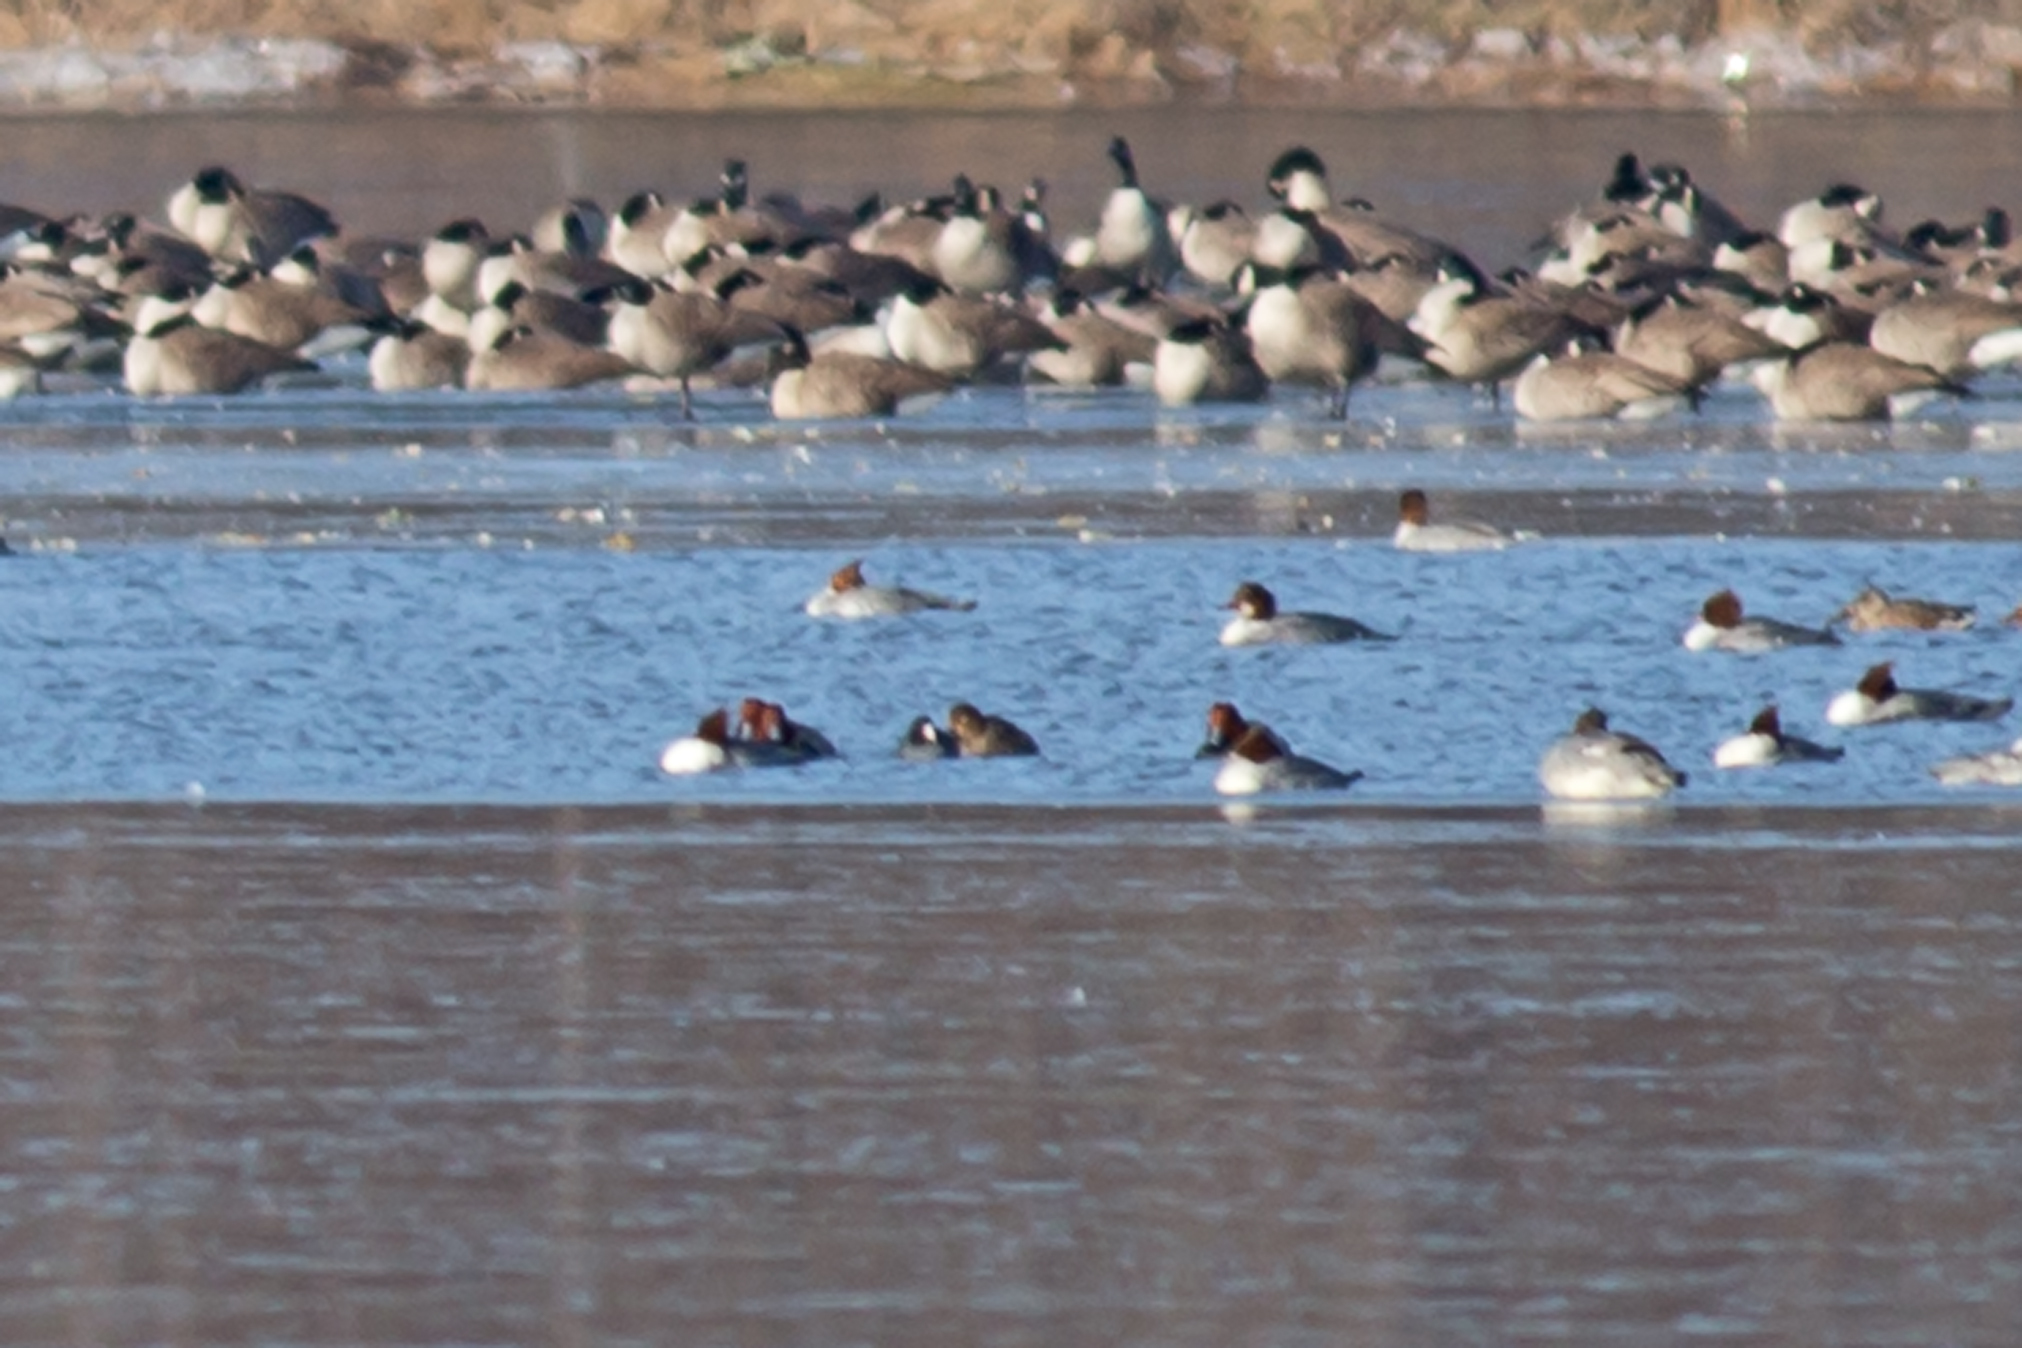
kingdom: Animalia
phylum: Chordata
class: Aves
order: Anseriformes
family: Anatidae
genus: Aythya
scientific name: Aythya americana
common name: Redhead
